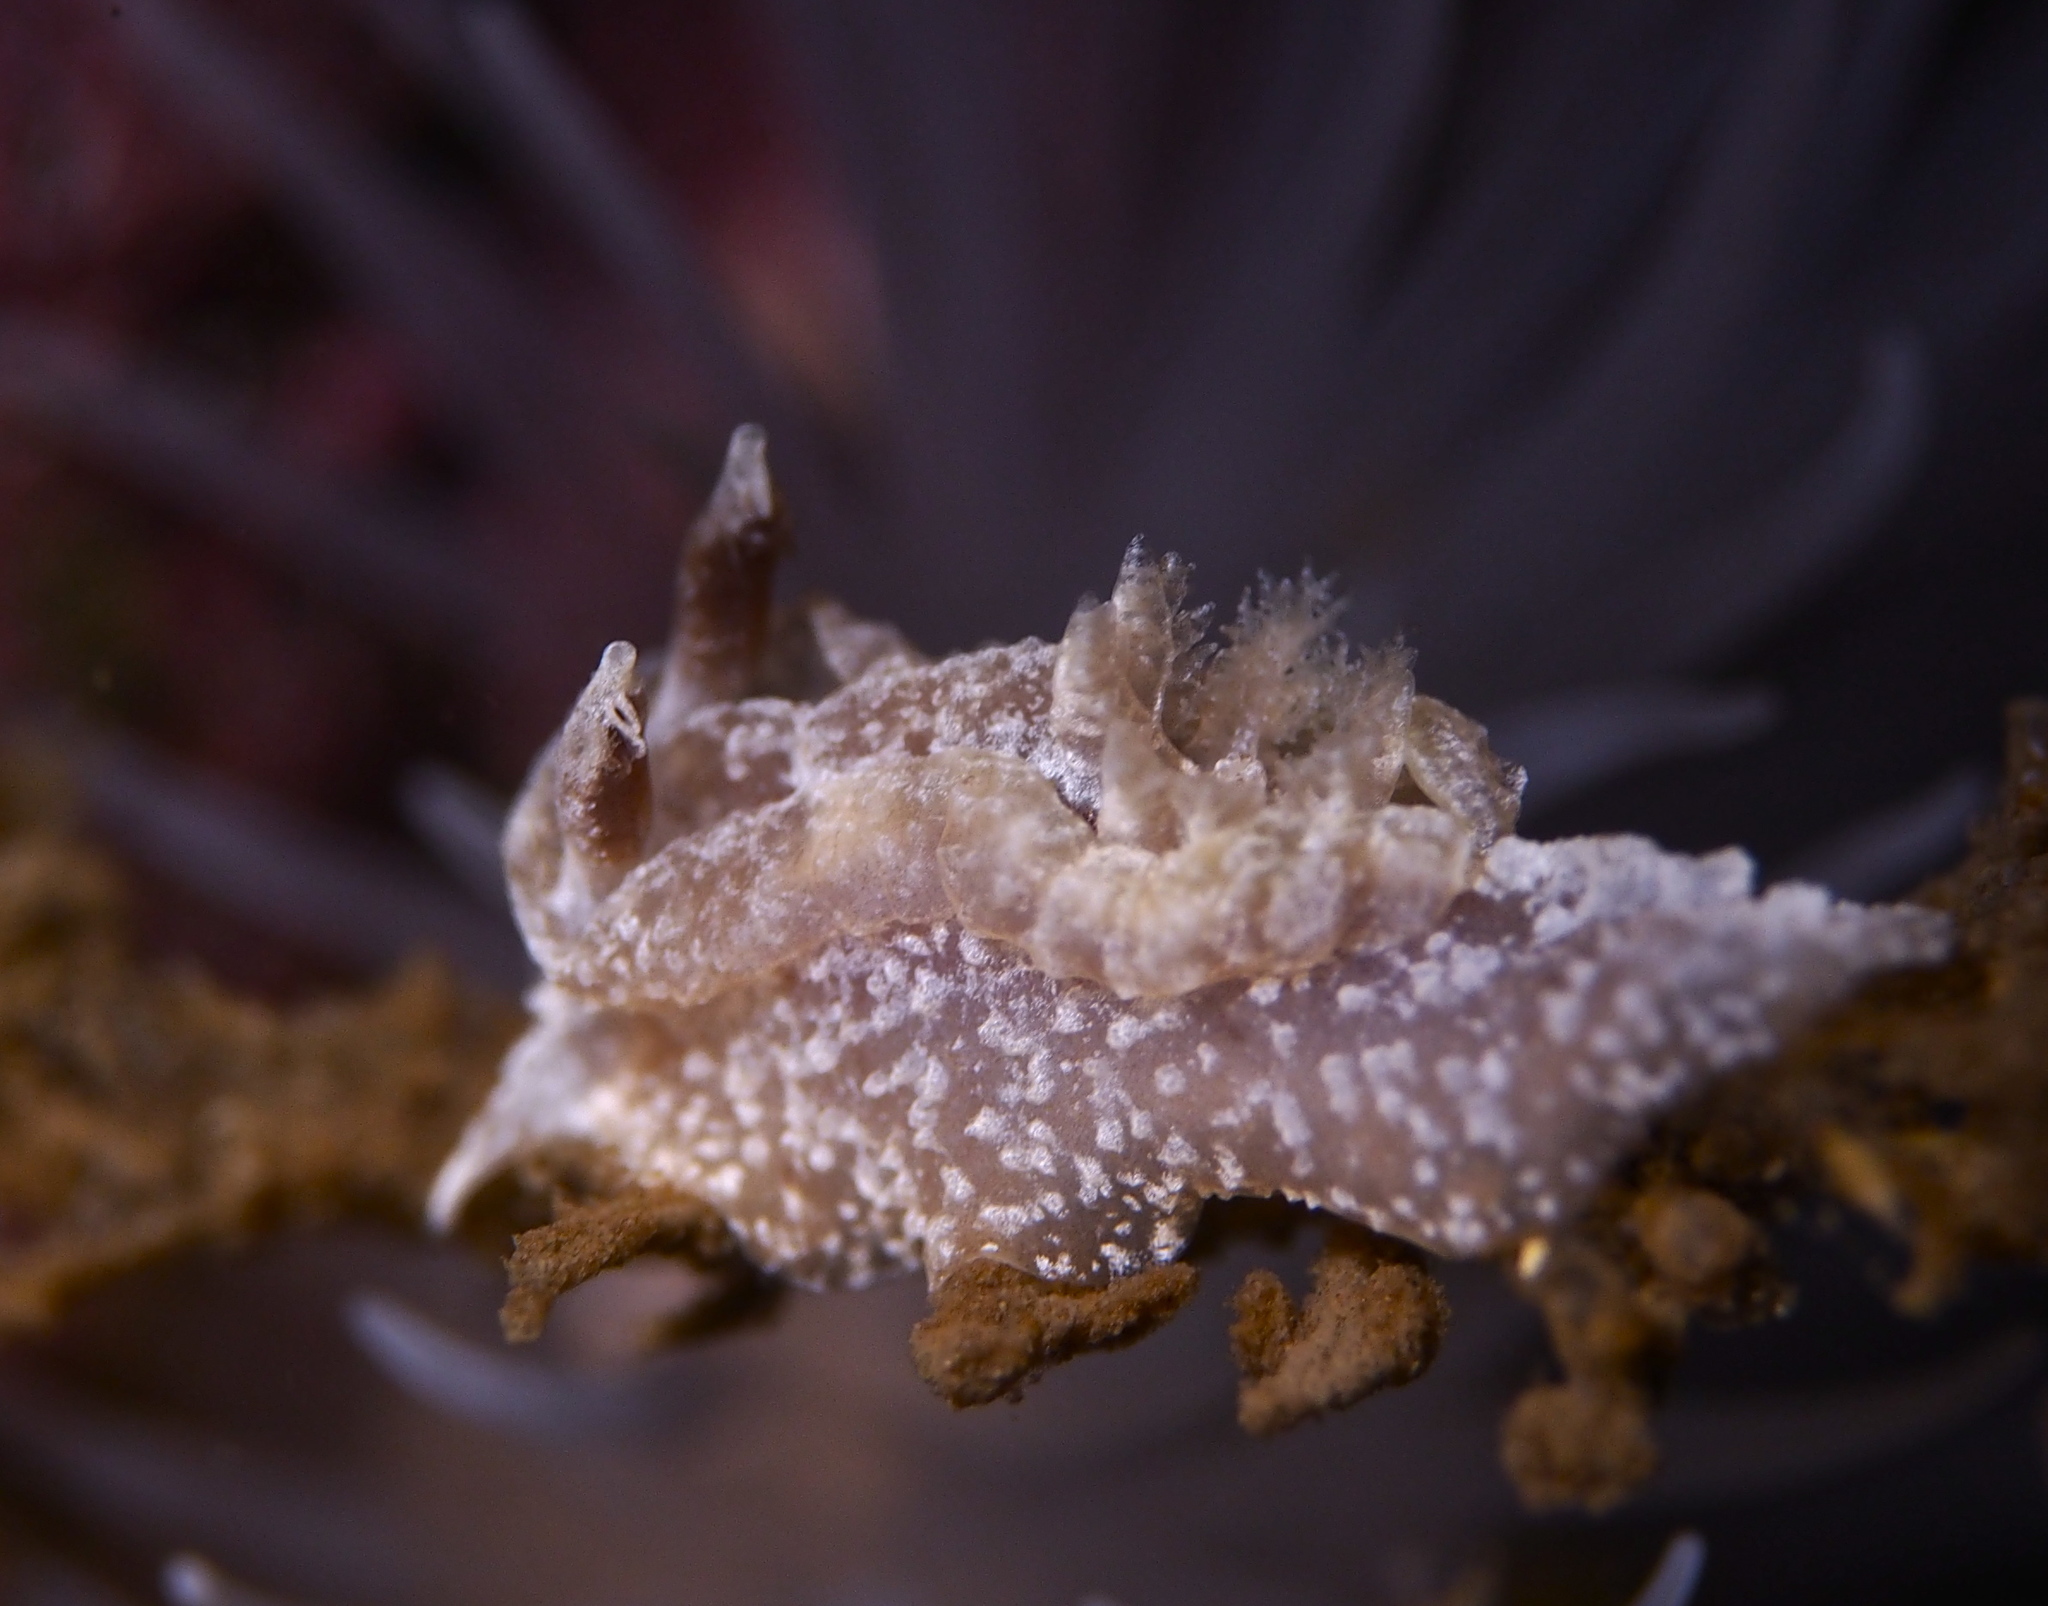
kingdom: Animalia
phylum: Mollusca
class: Gastropoda
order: Nudibranchia
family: Goniodorididae
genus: Pelagella
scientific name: Pelagella castanea
